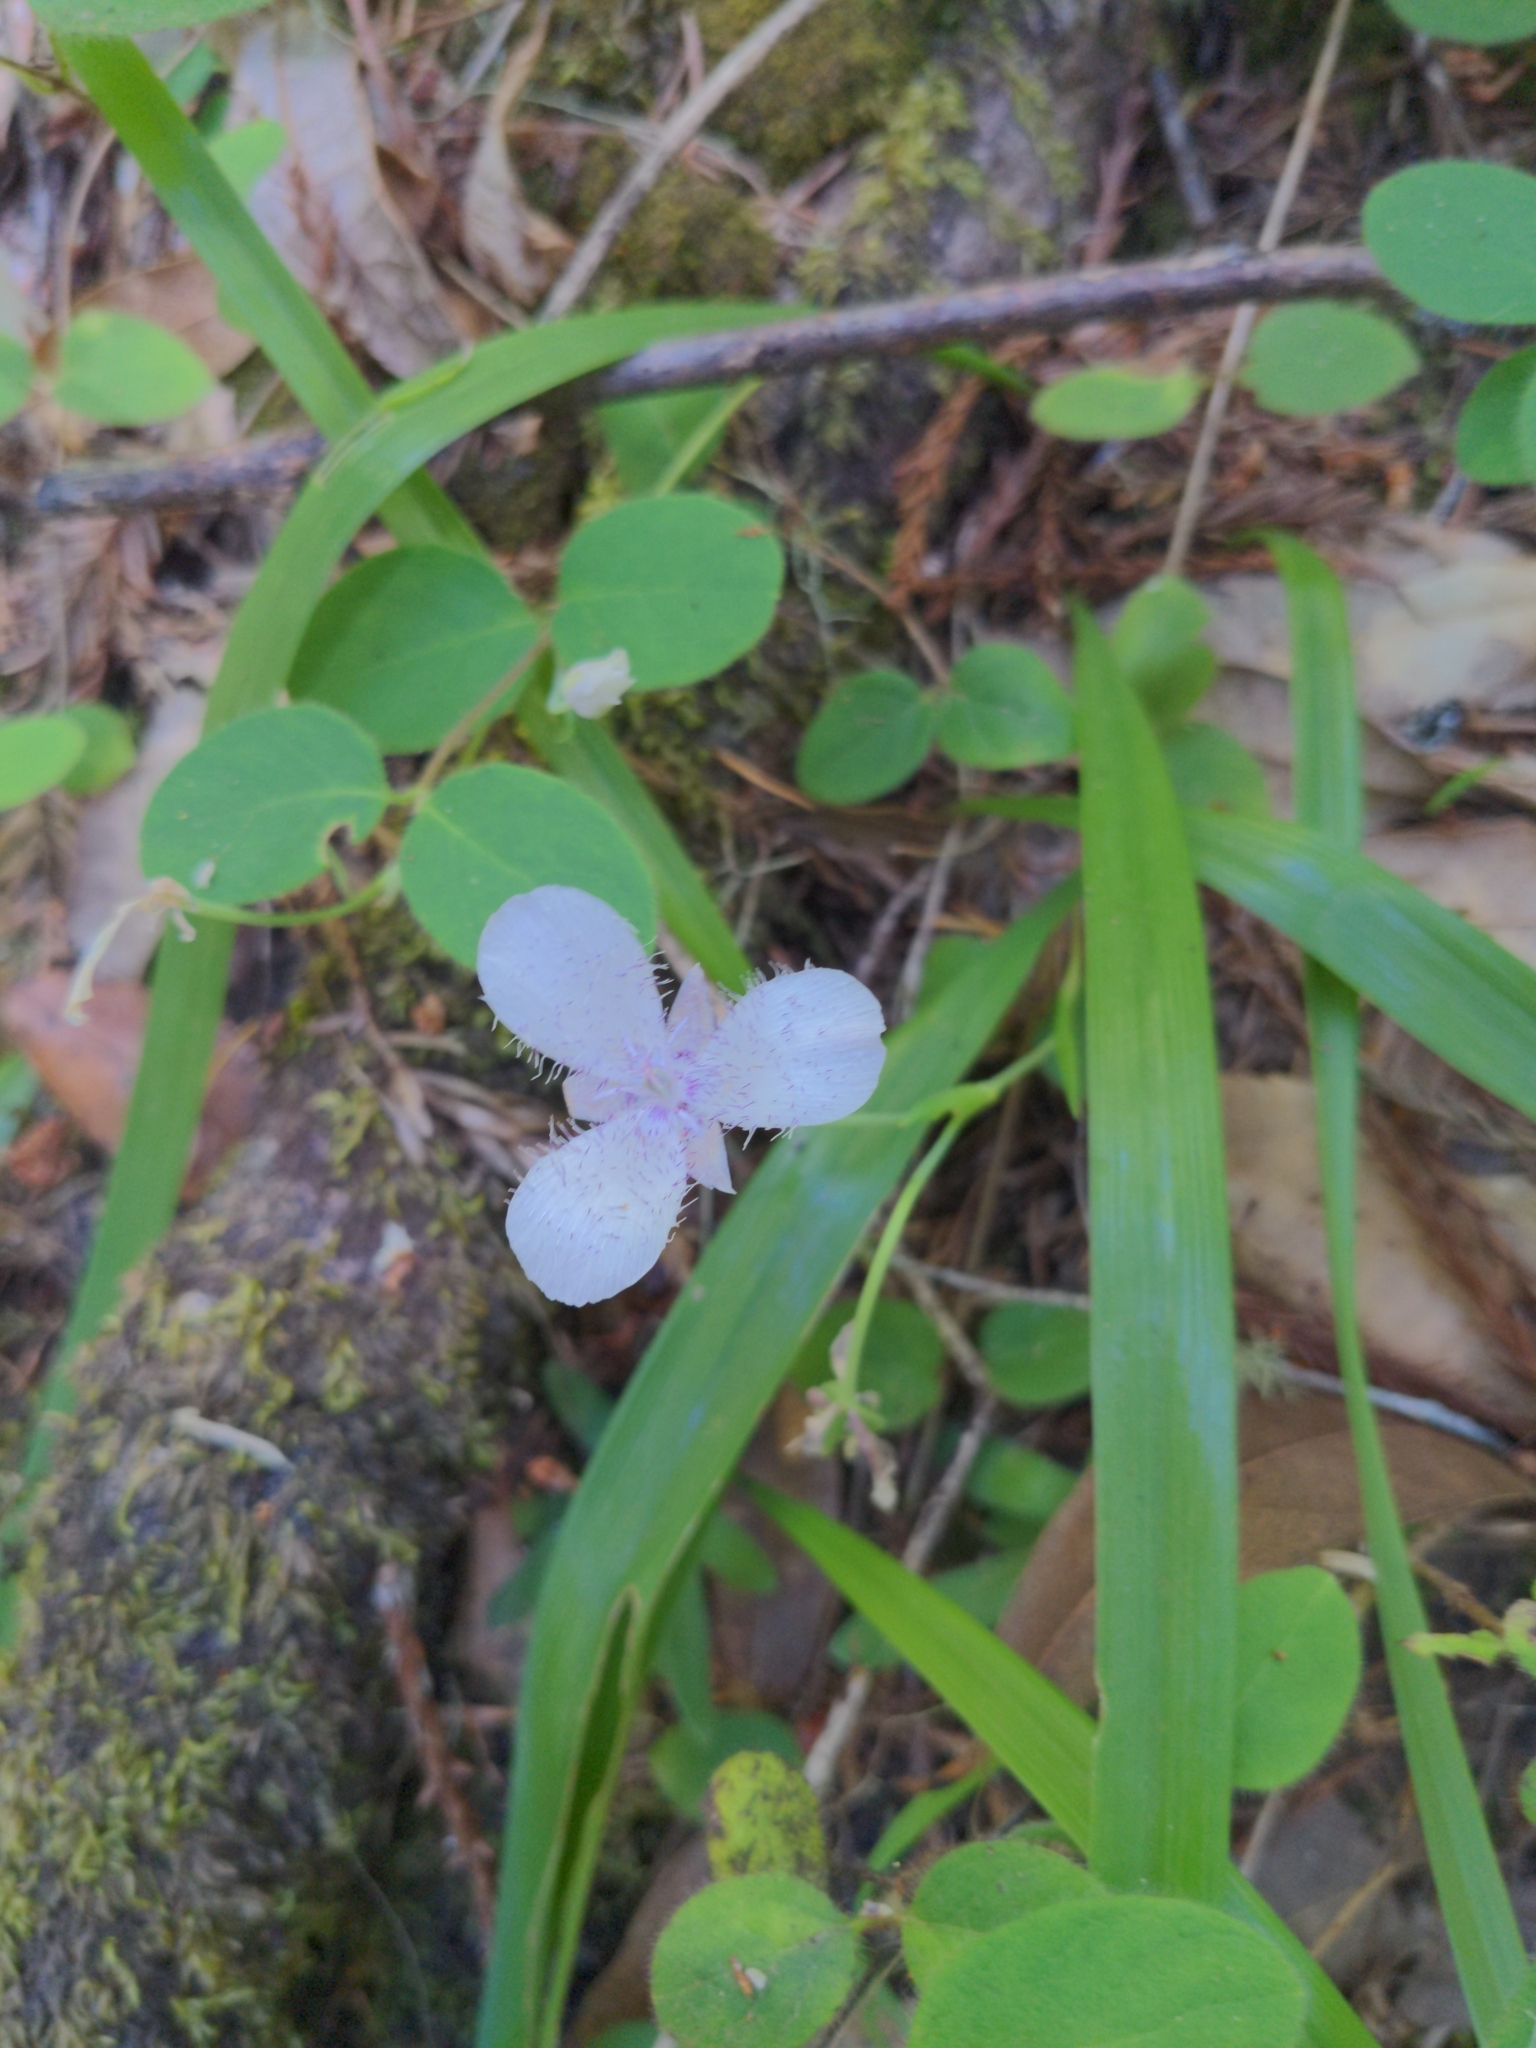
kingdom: Plantae
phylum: Tracheophyta
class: Liliopsida
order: Liliales
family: Liliaceae
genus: Calochortus
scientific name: Calochortus tolmiei
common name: Pussy-ears
